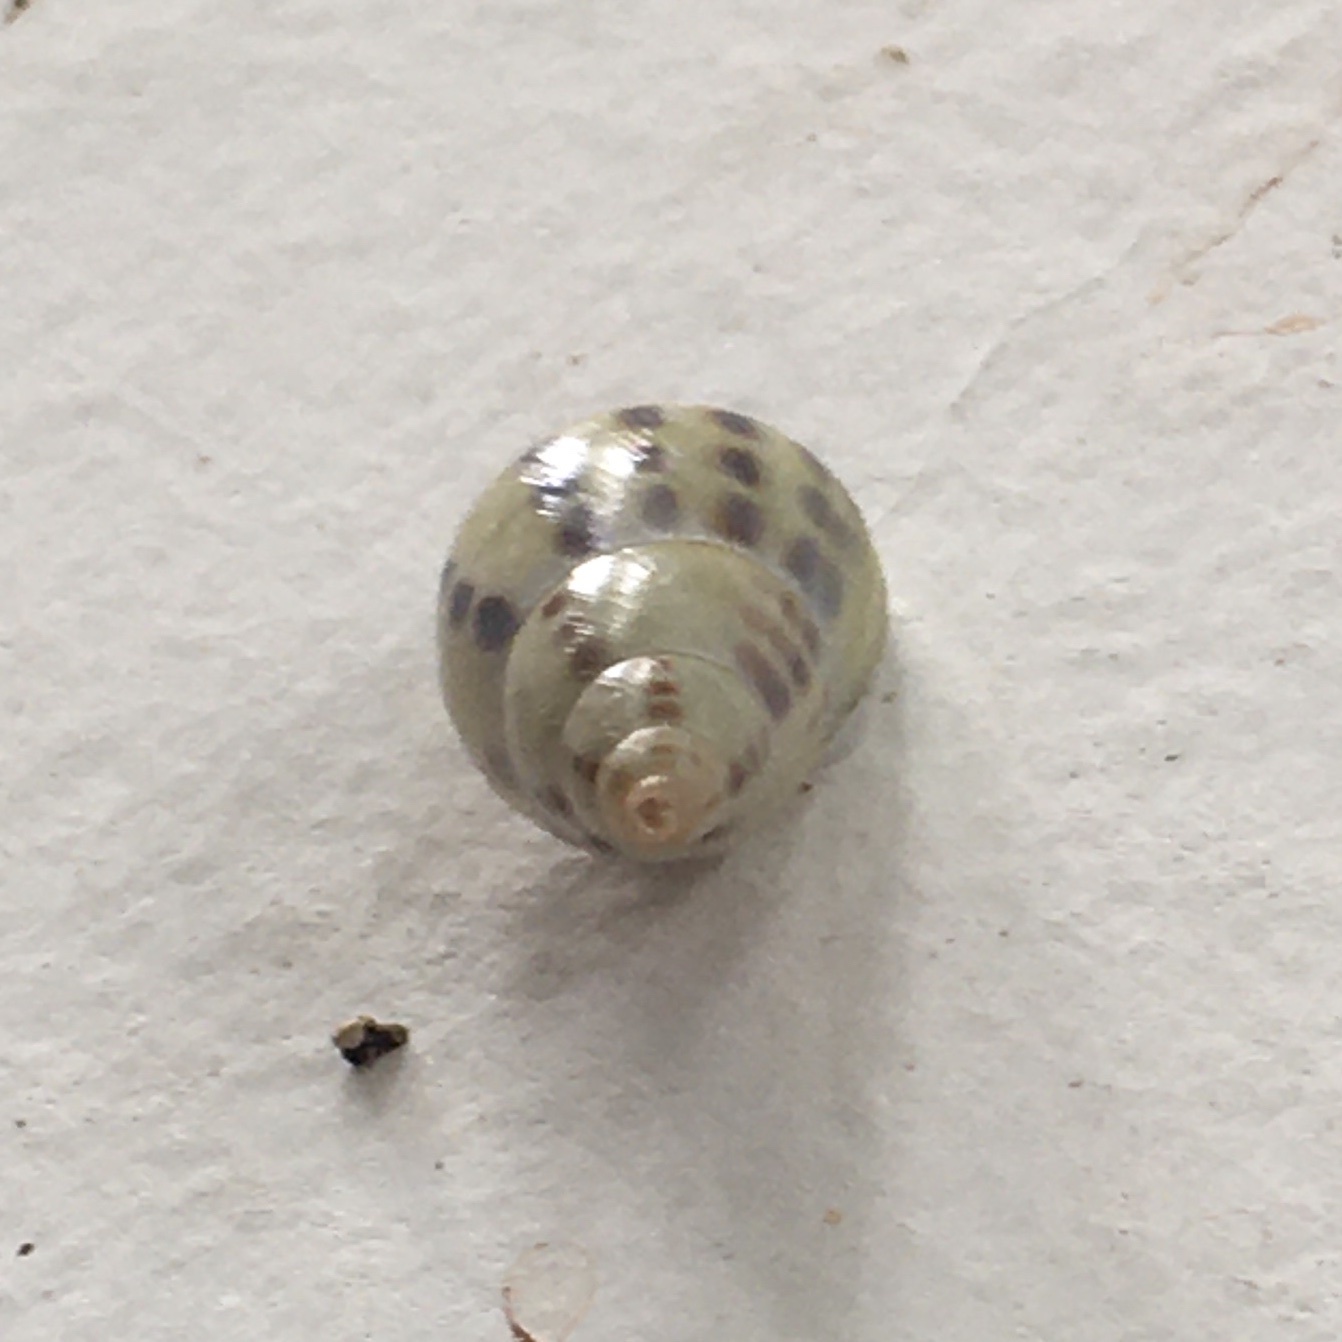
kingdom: Animalia
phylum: Mollusca
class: Gastropoda
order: Stylommatophora
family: Bulimulidae
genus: Drymaeus
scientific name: Drymaeus
